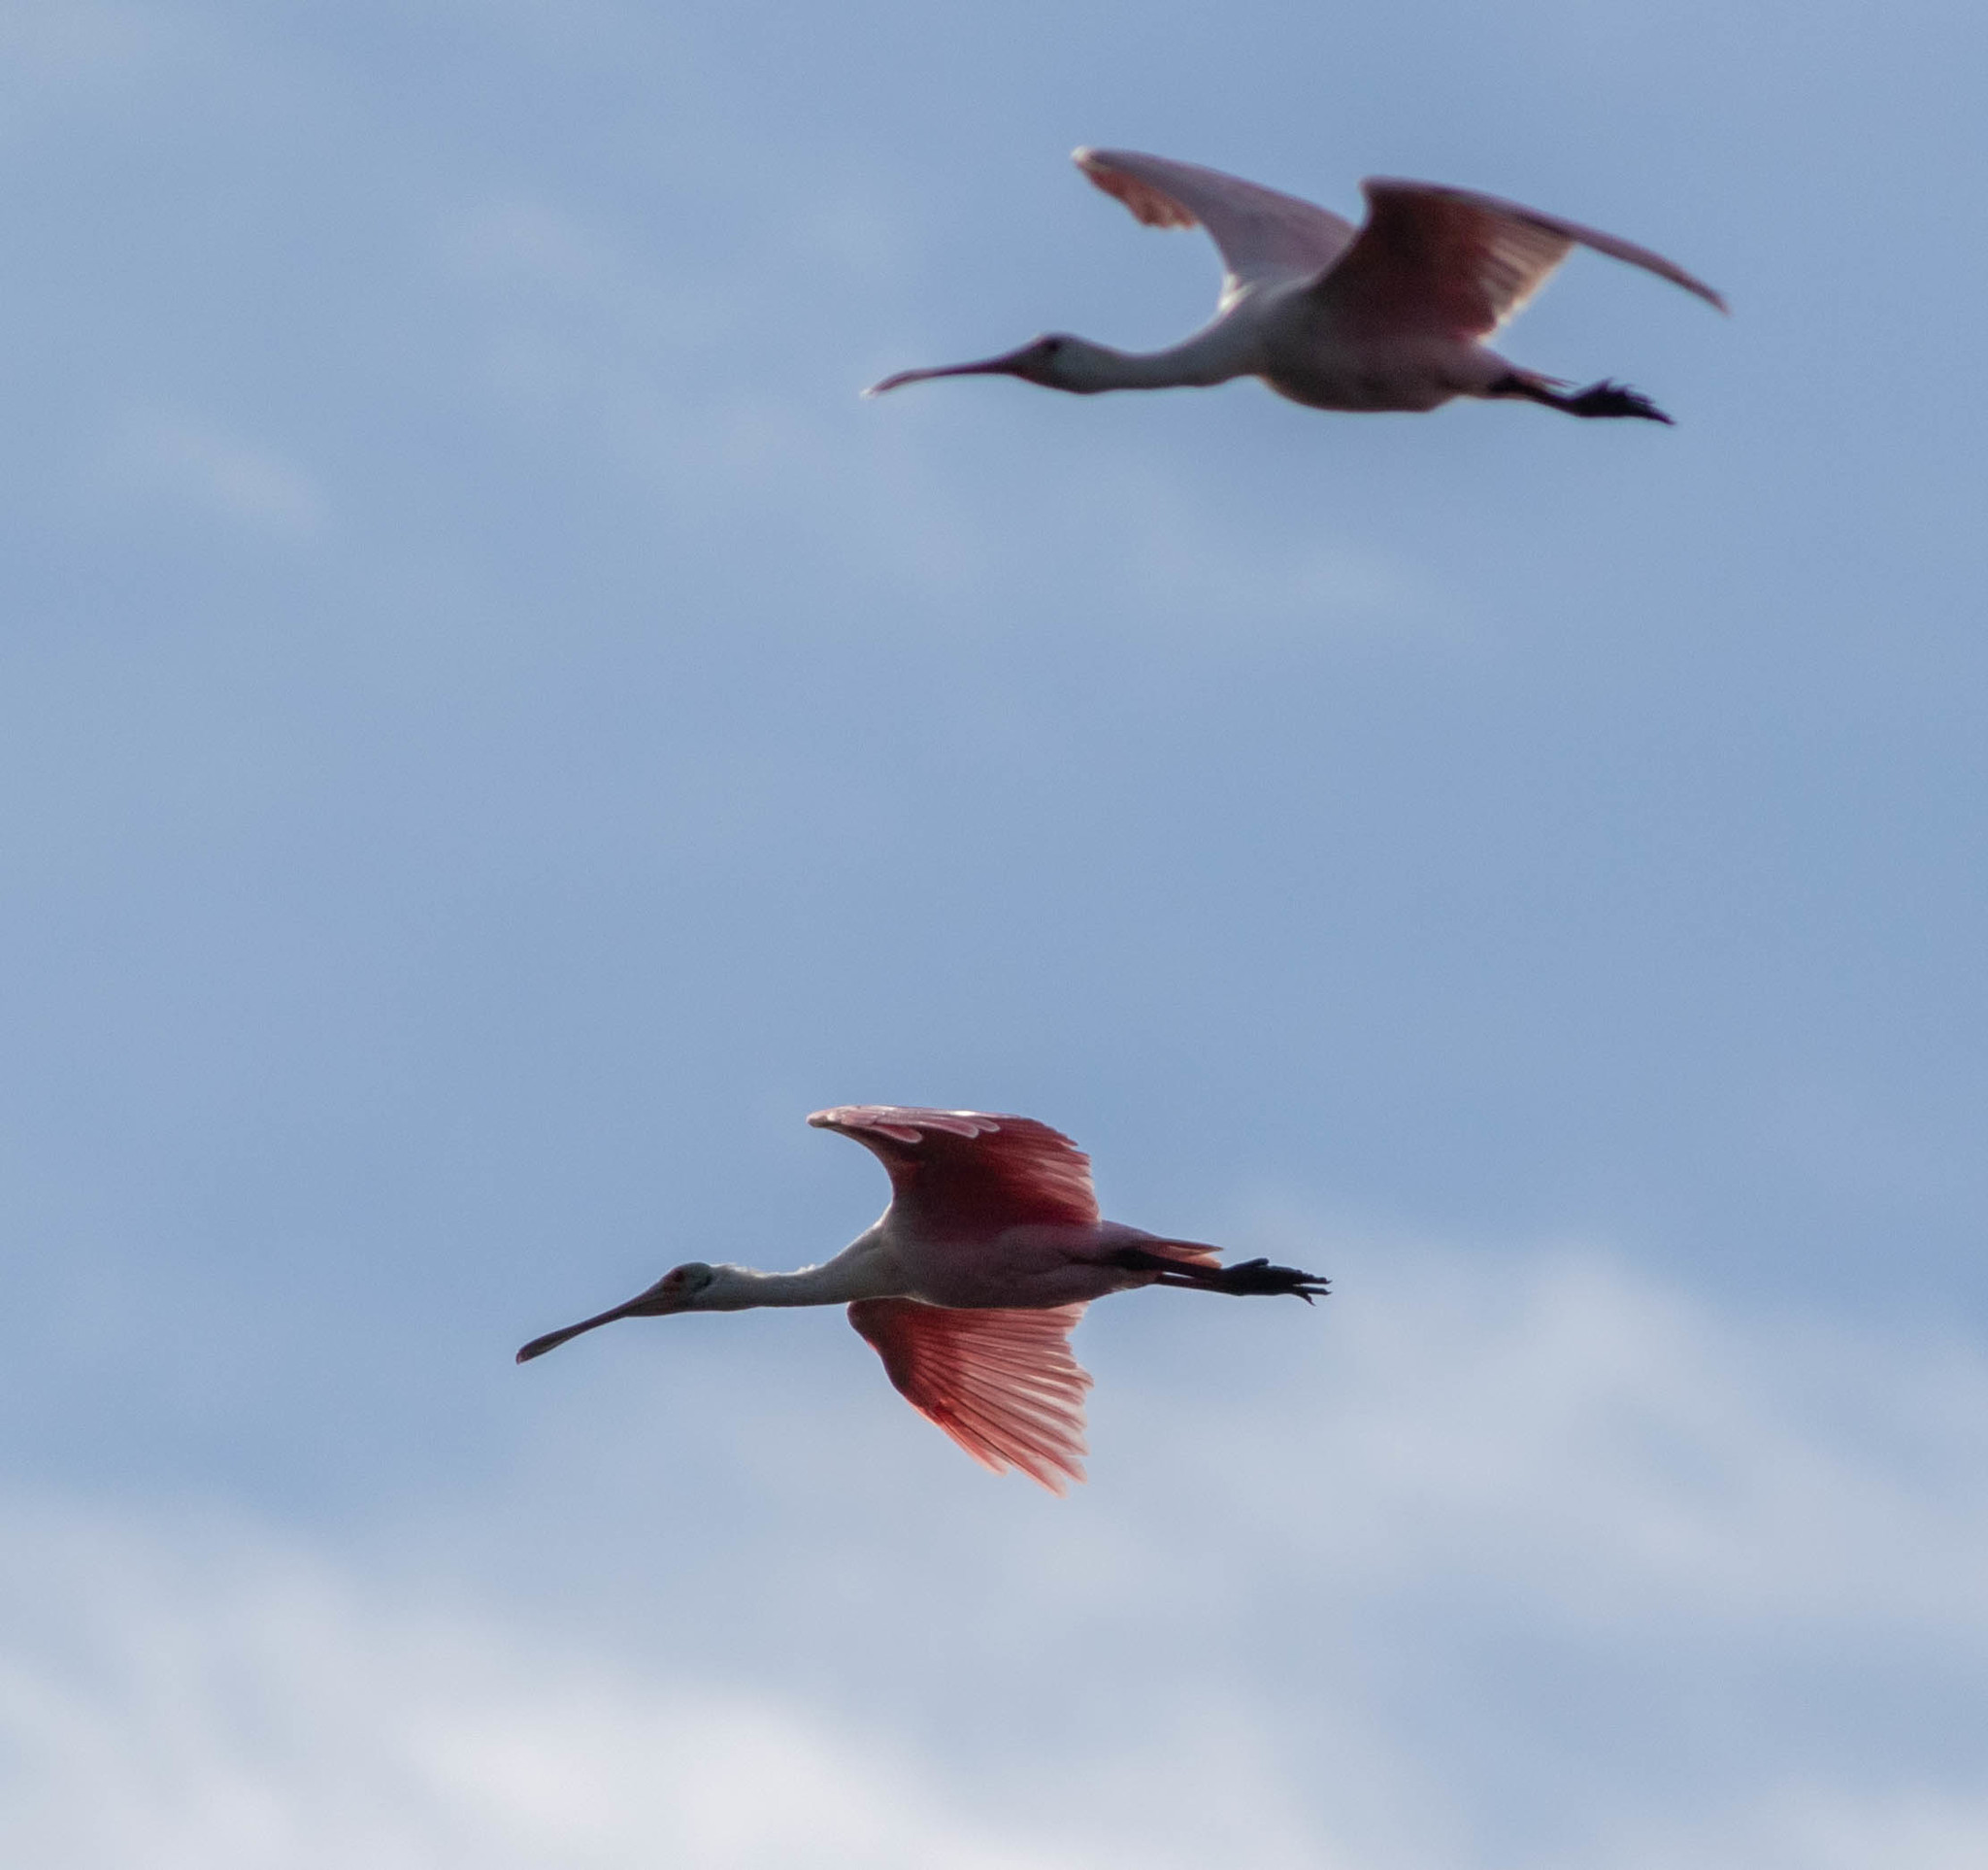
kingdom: Animalia
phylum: Chordata
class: Aves
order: Pelecaniformes
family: Threskiornithidae
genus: Platalea
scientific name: Platalea ajaja
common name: Roseate spoonbill
